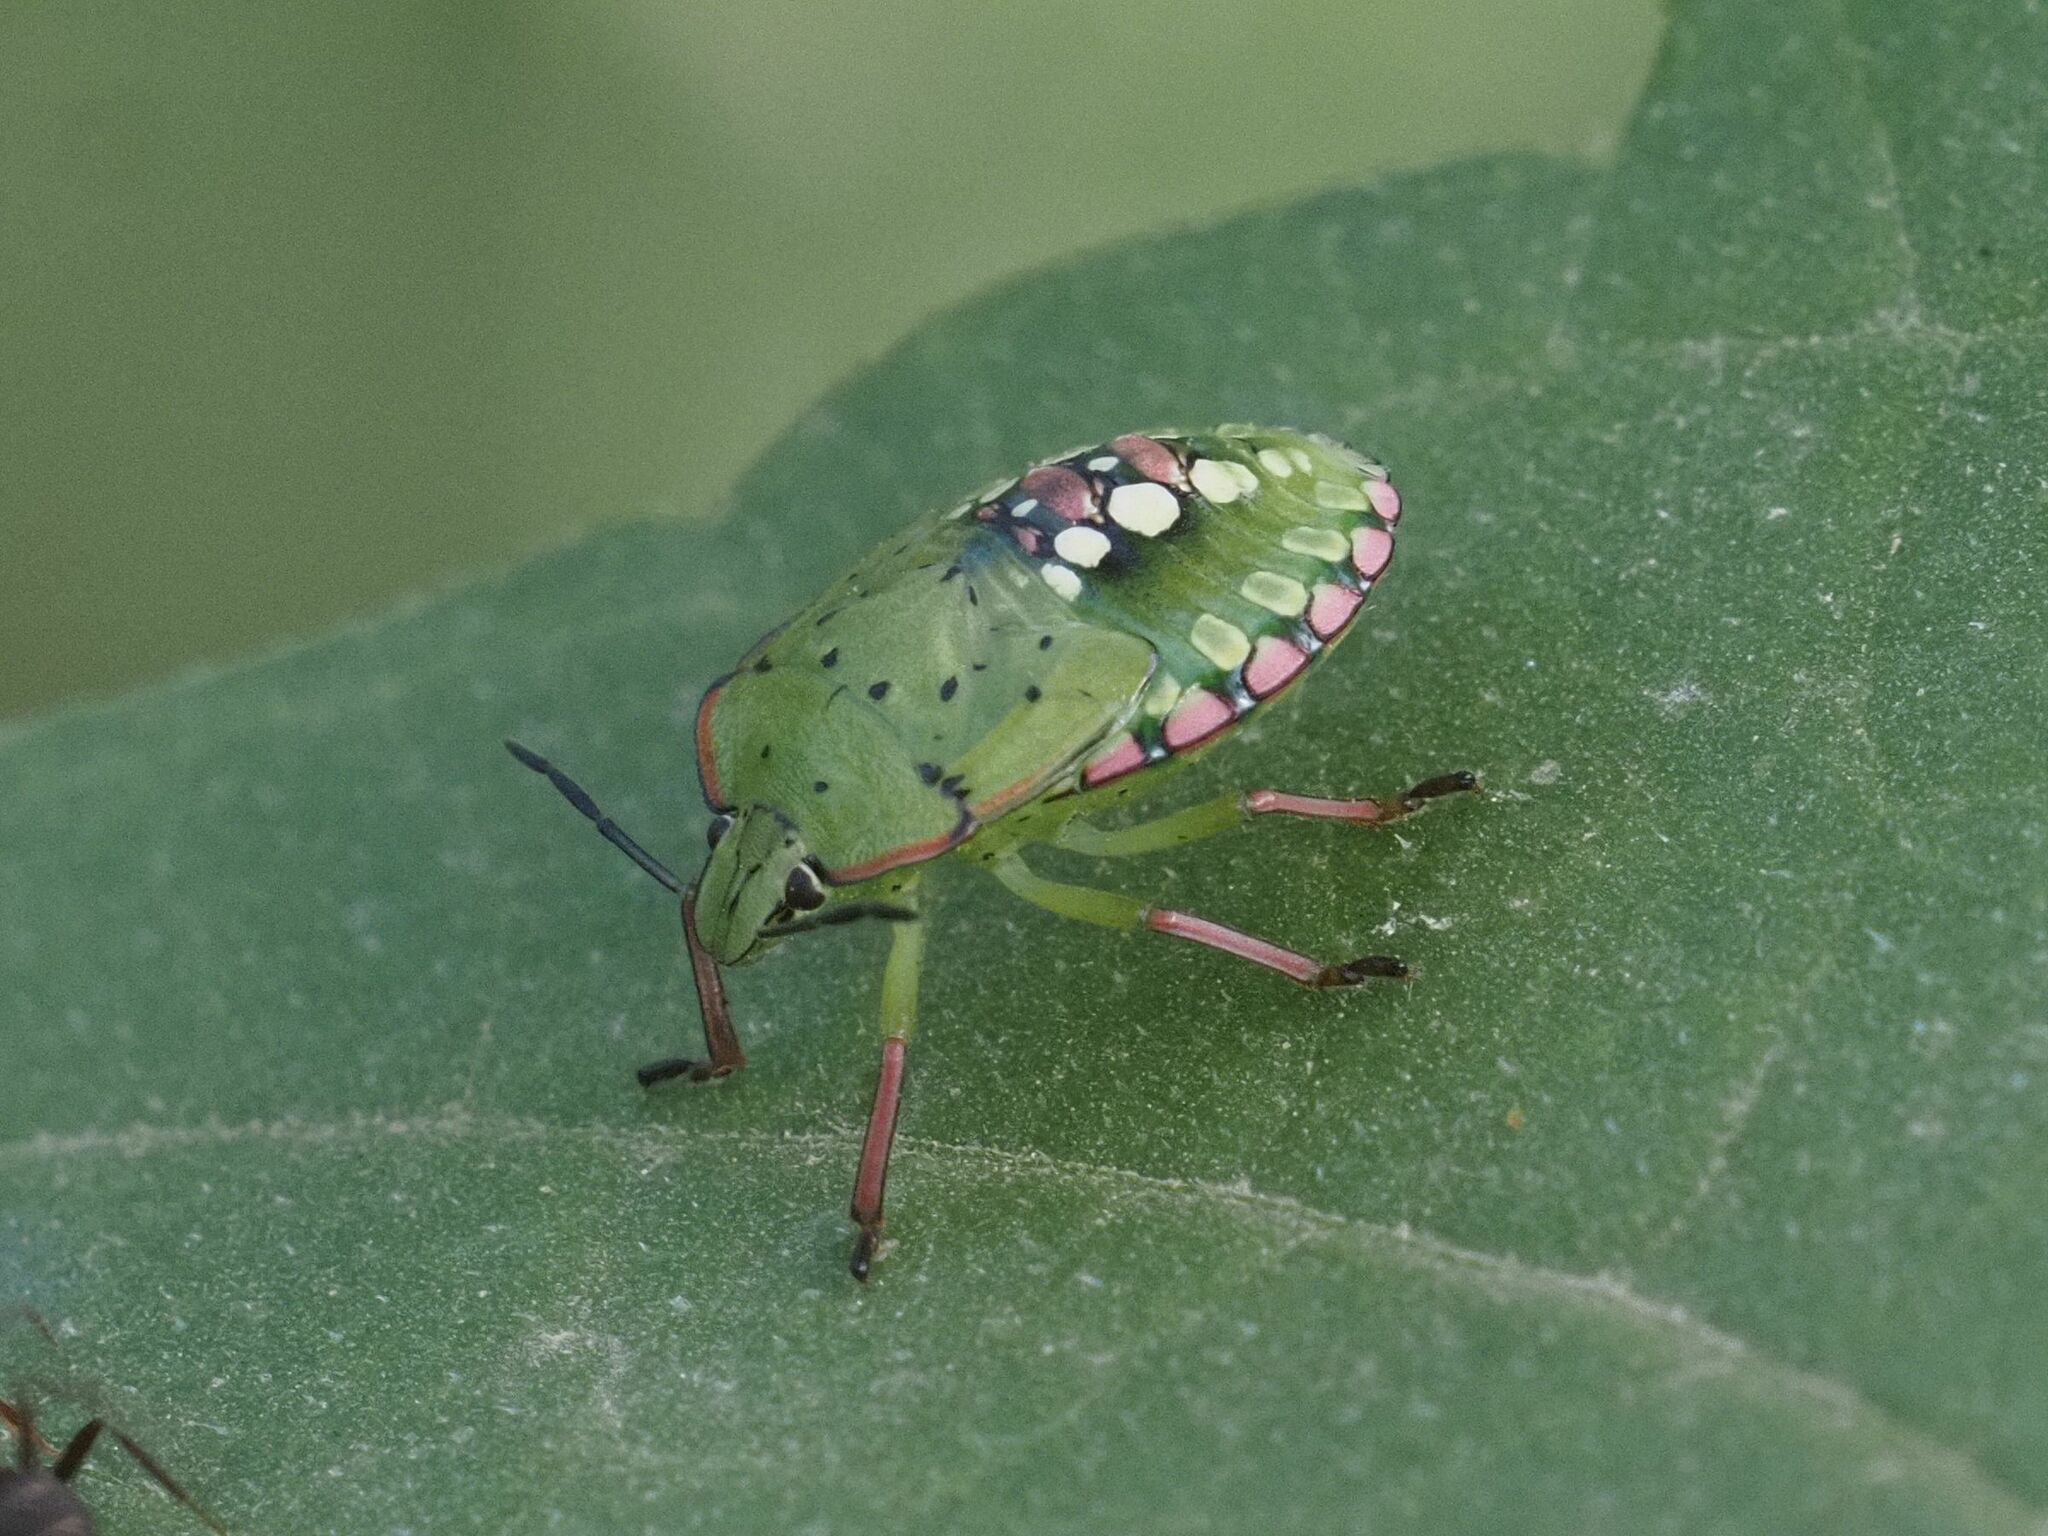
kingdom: Animalia
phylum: Arthropoda
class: Insecta
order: Hemiptera
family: Pentatomidae
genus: Nezara
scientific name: Nezara viridula
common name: Southern green stink bug
